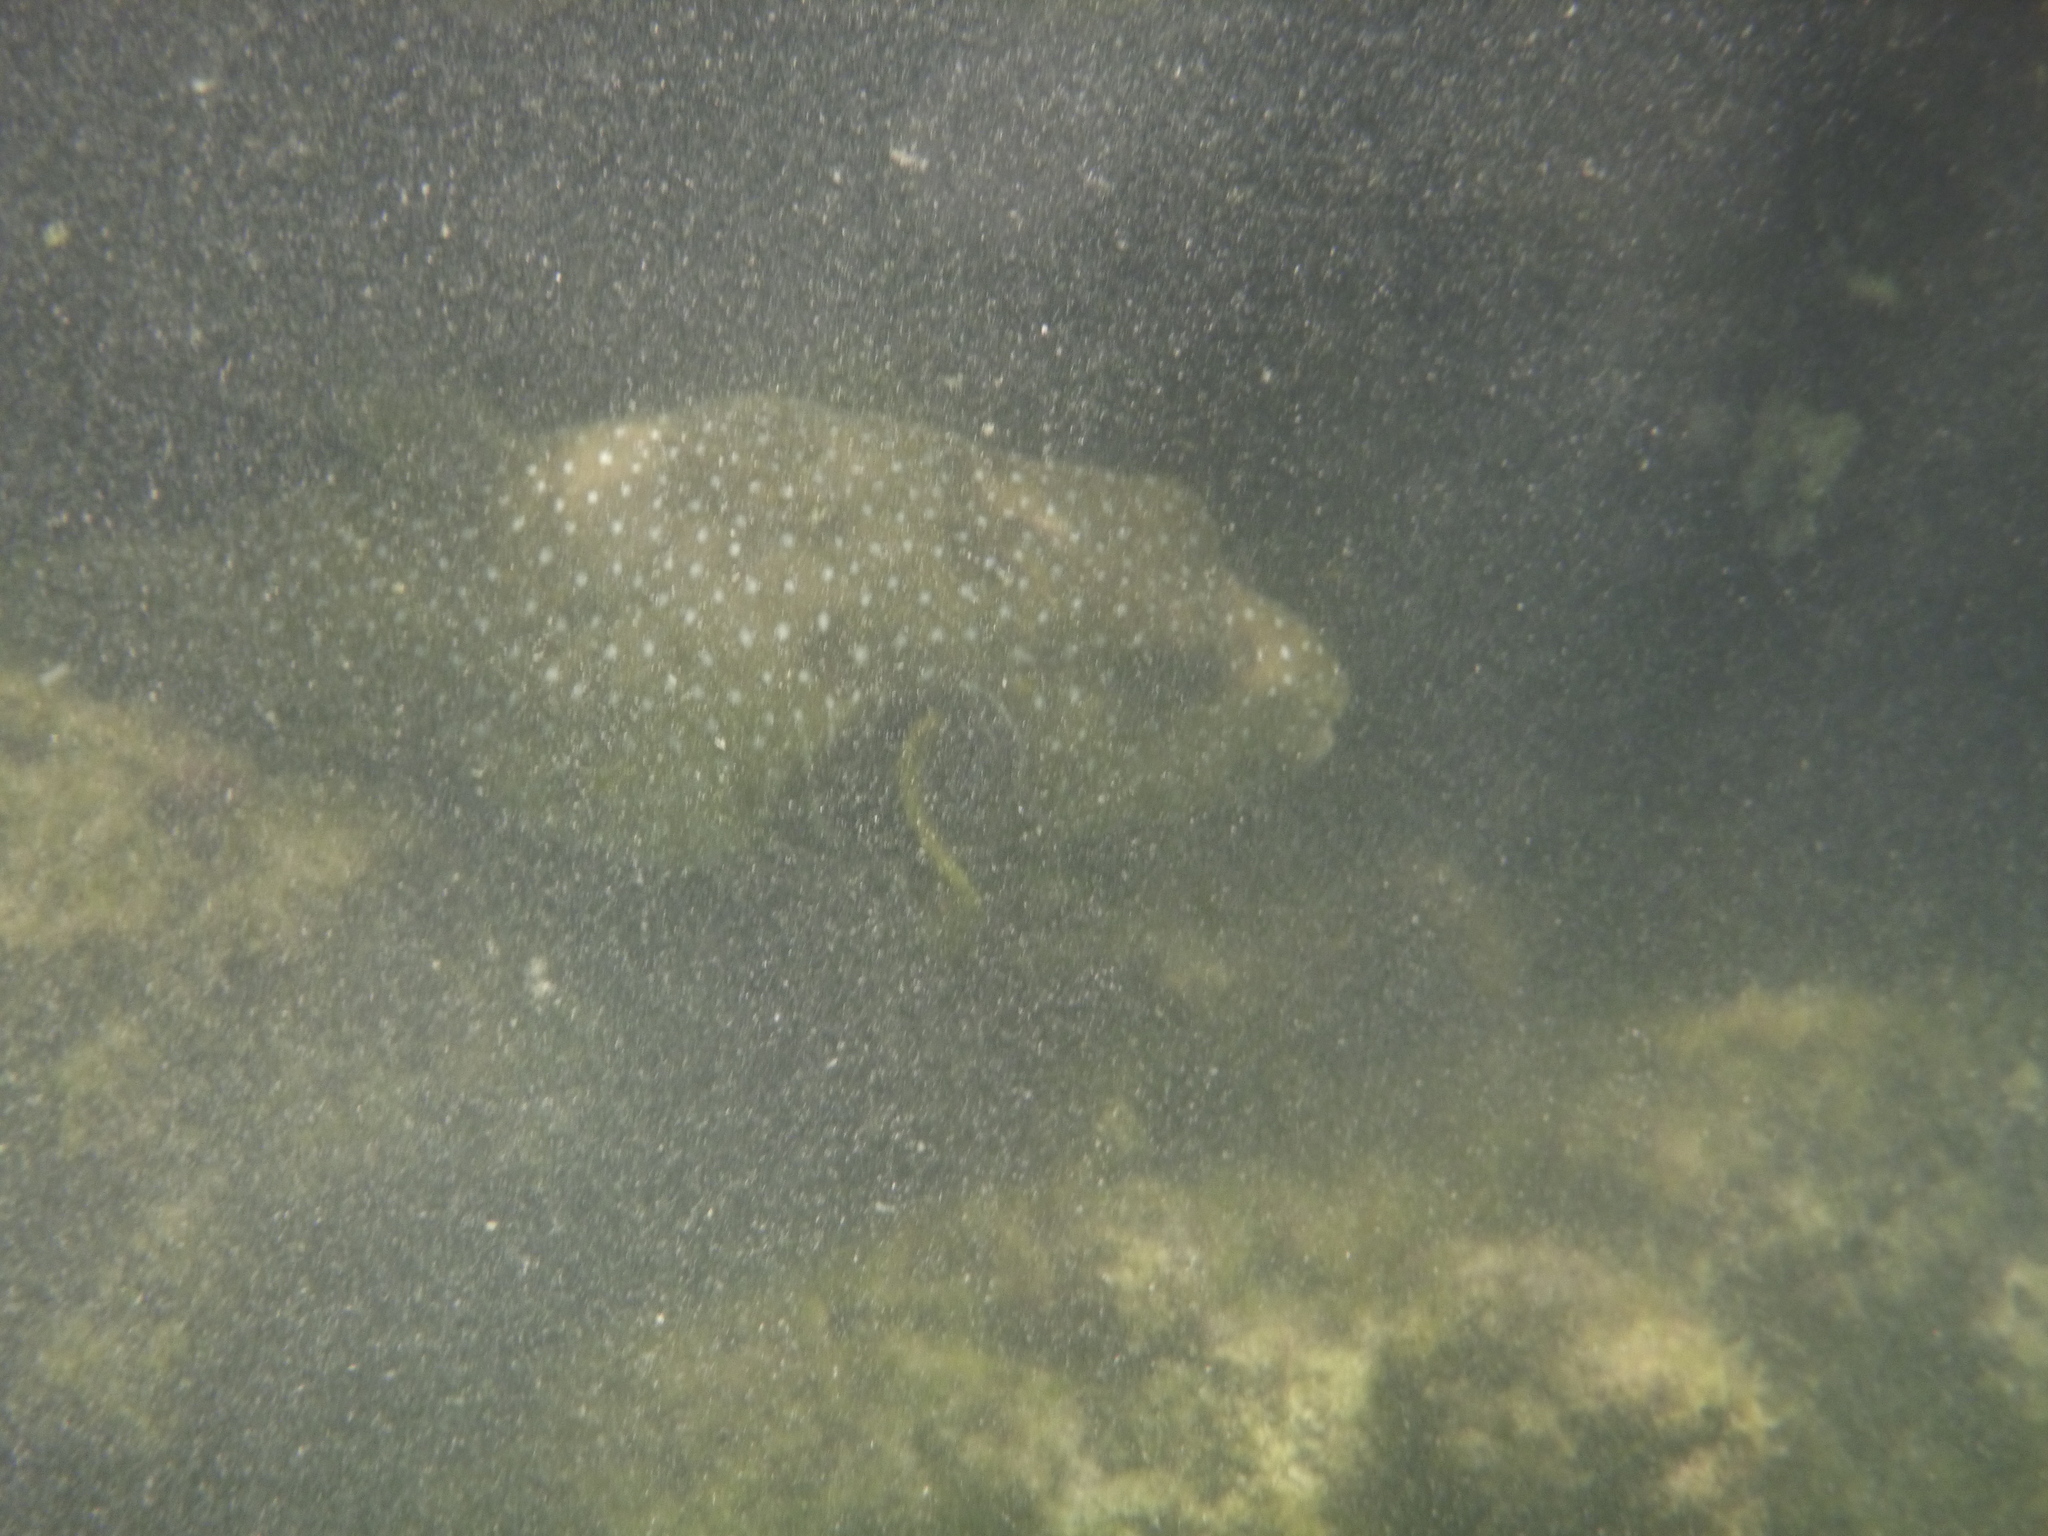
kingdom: Animalia
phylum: Chordata
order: Tetraodontiformes
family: Tetraodontidae
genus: Arothron
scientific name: Arothron hispidus
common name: Stripebelly puffer
